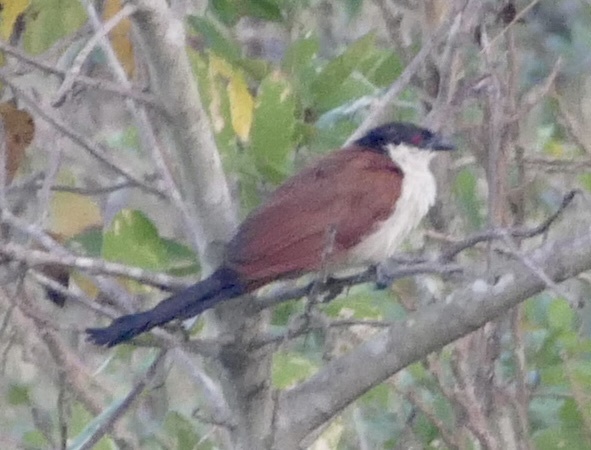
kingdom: Animalia
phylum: Chordata
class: Aves
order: Cuculiformes
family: Cuculidae
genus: Centropus
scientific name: Centropus senegalensis
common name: Senegal coucal
